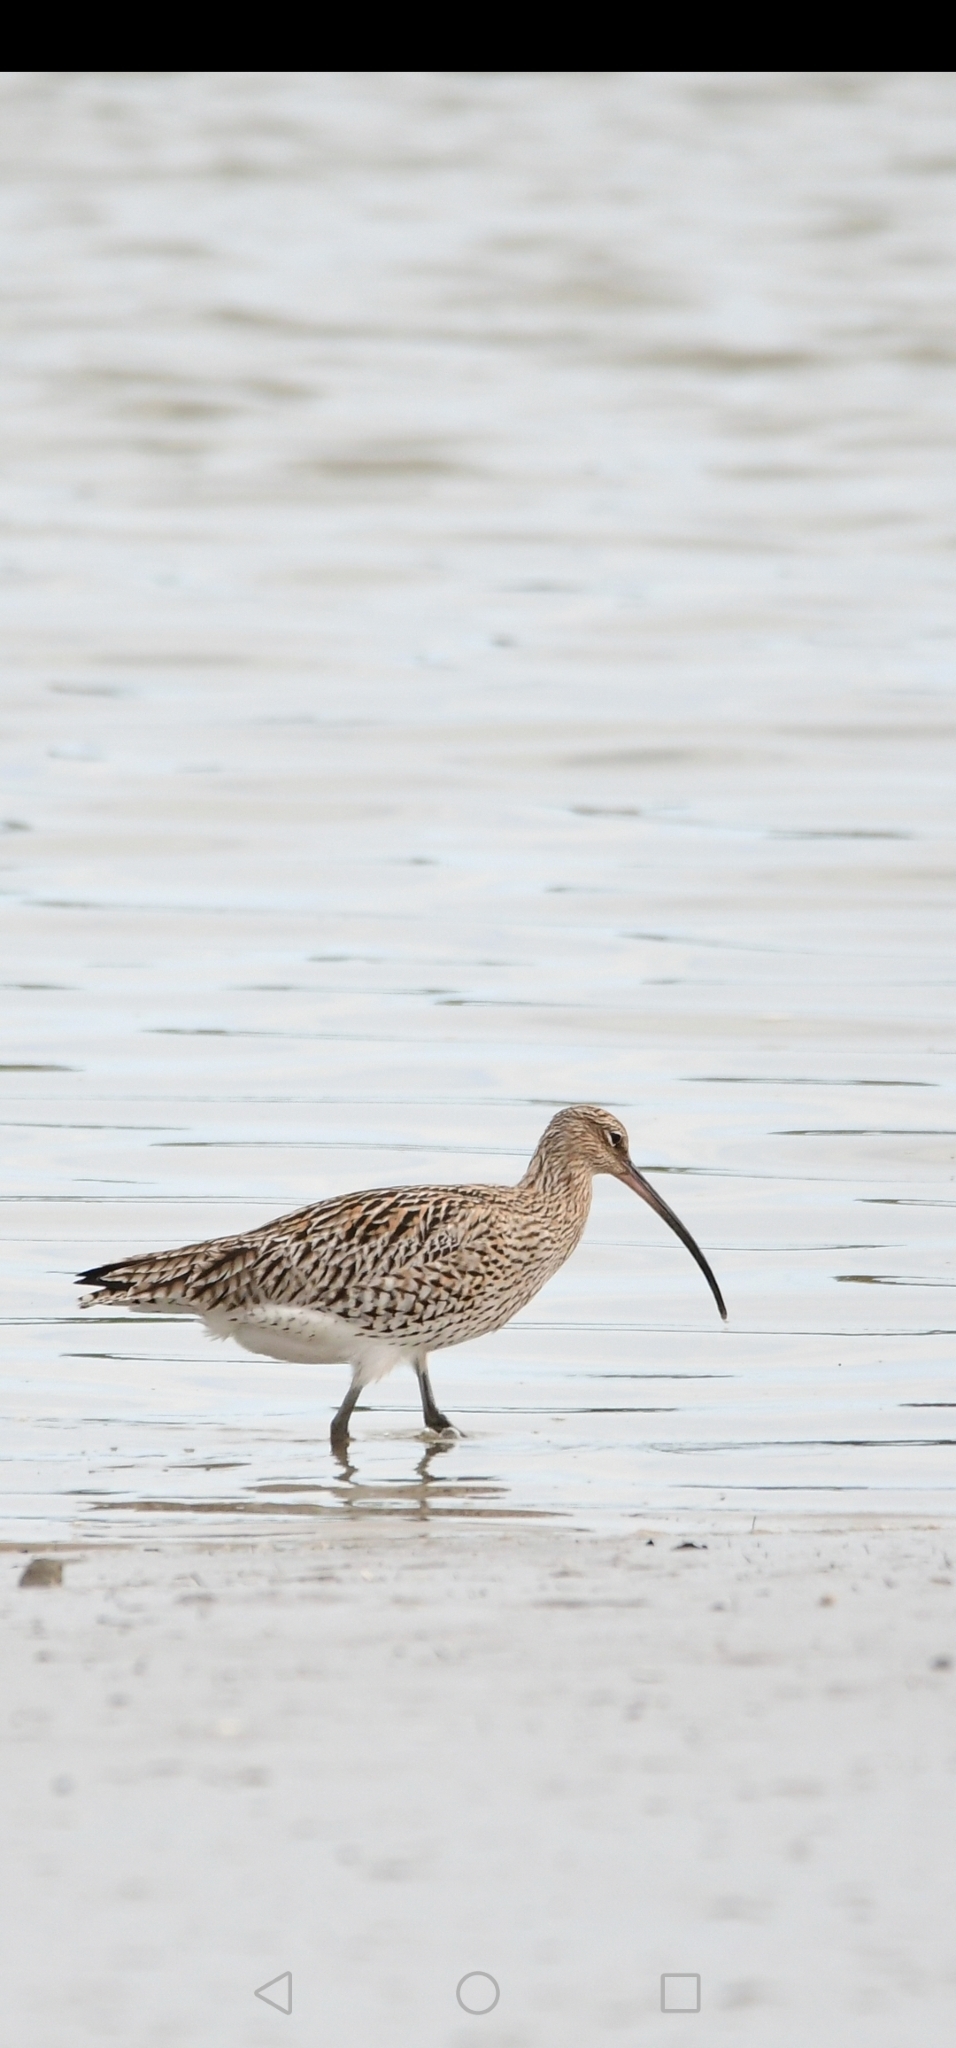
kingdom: Animalia
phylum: Chordata
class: Aves
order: Charadriiformes
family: Scolopacidae
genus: Numenius
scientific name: Numenius arquata
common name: Eurasian curlew
